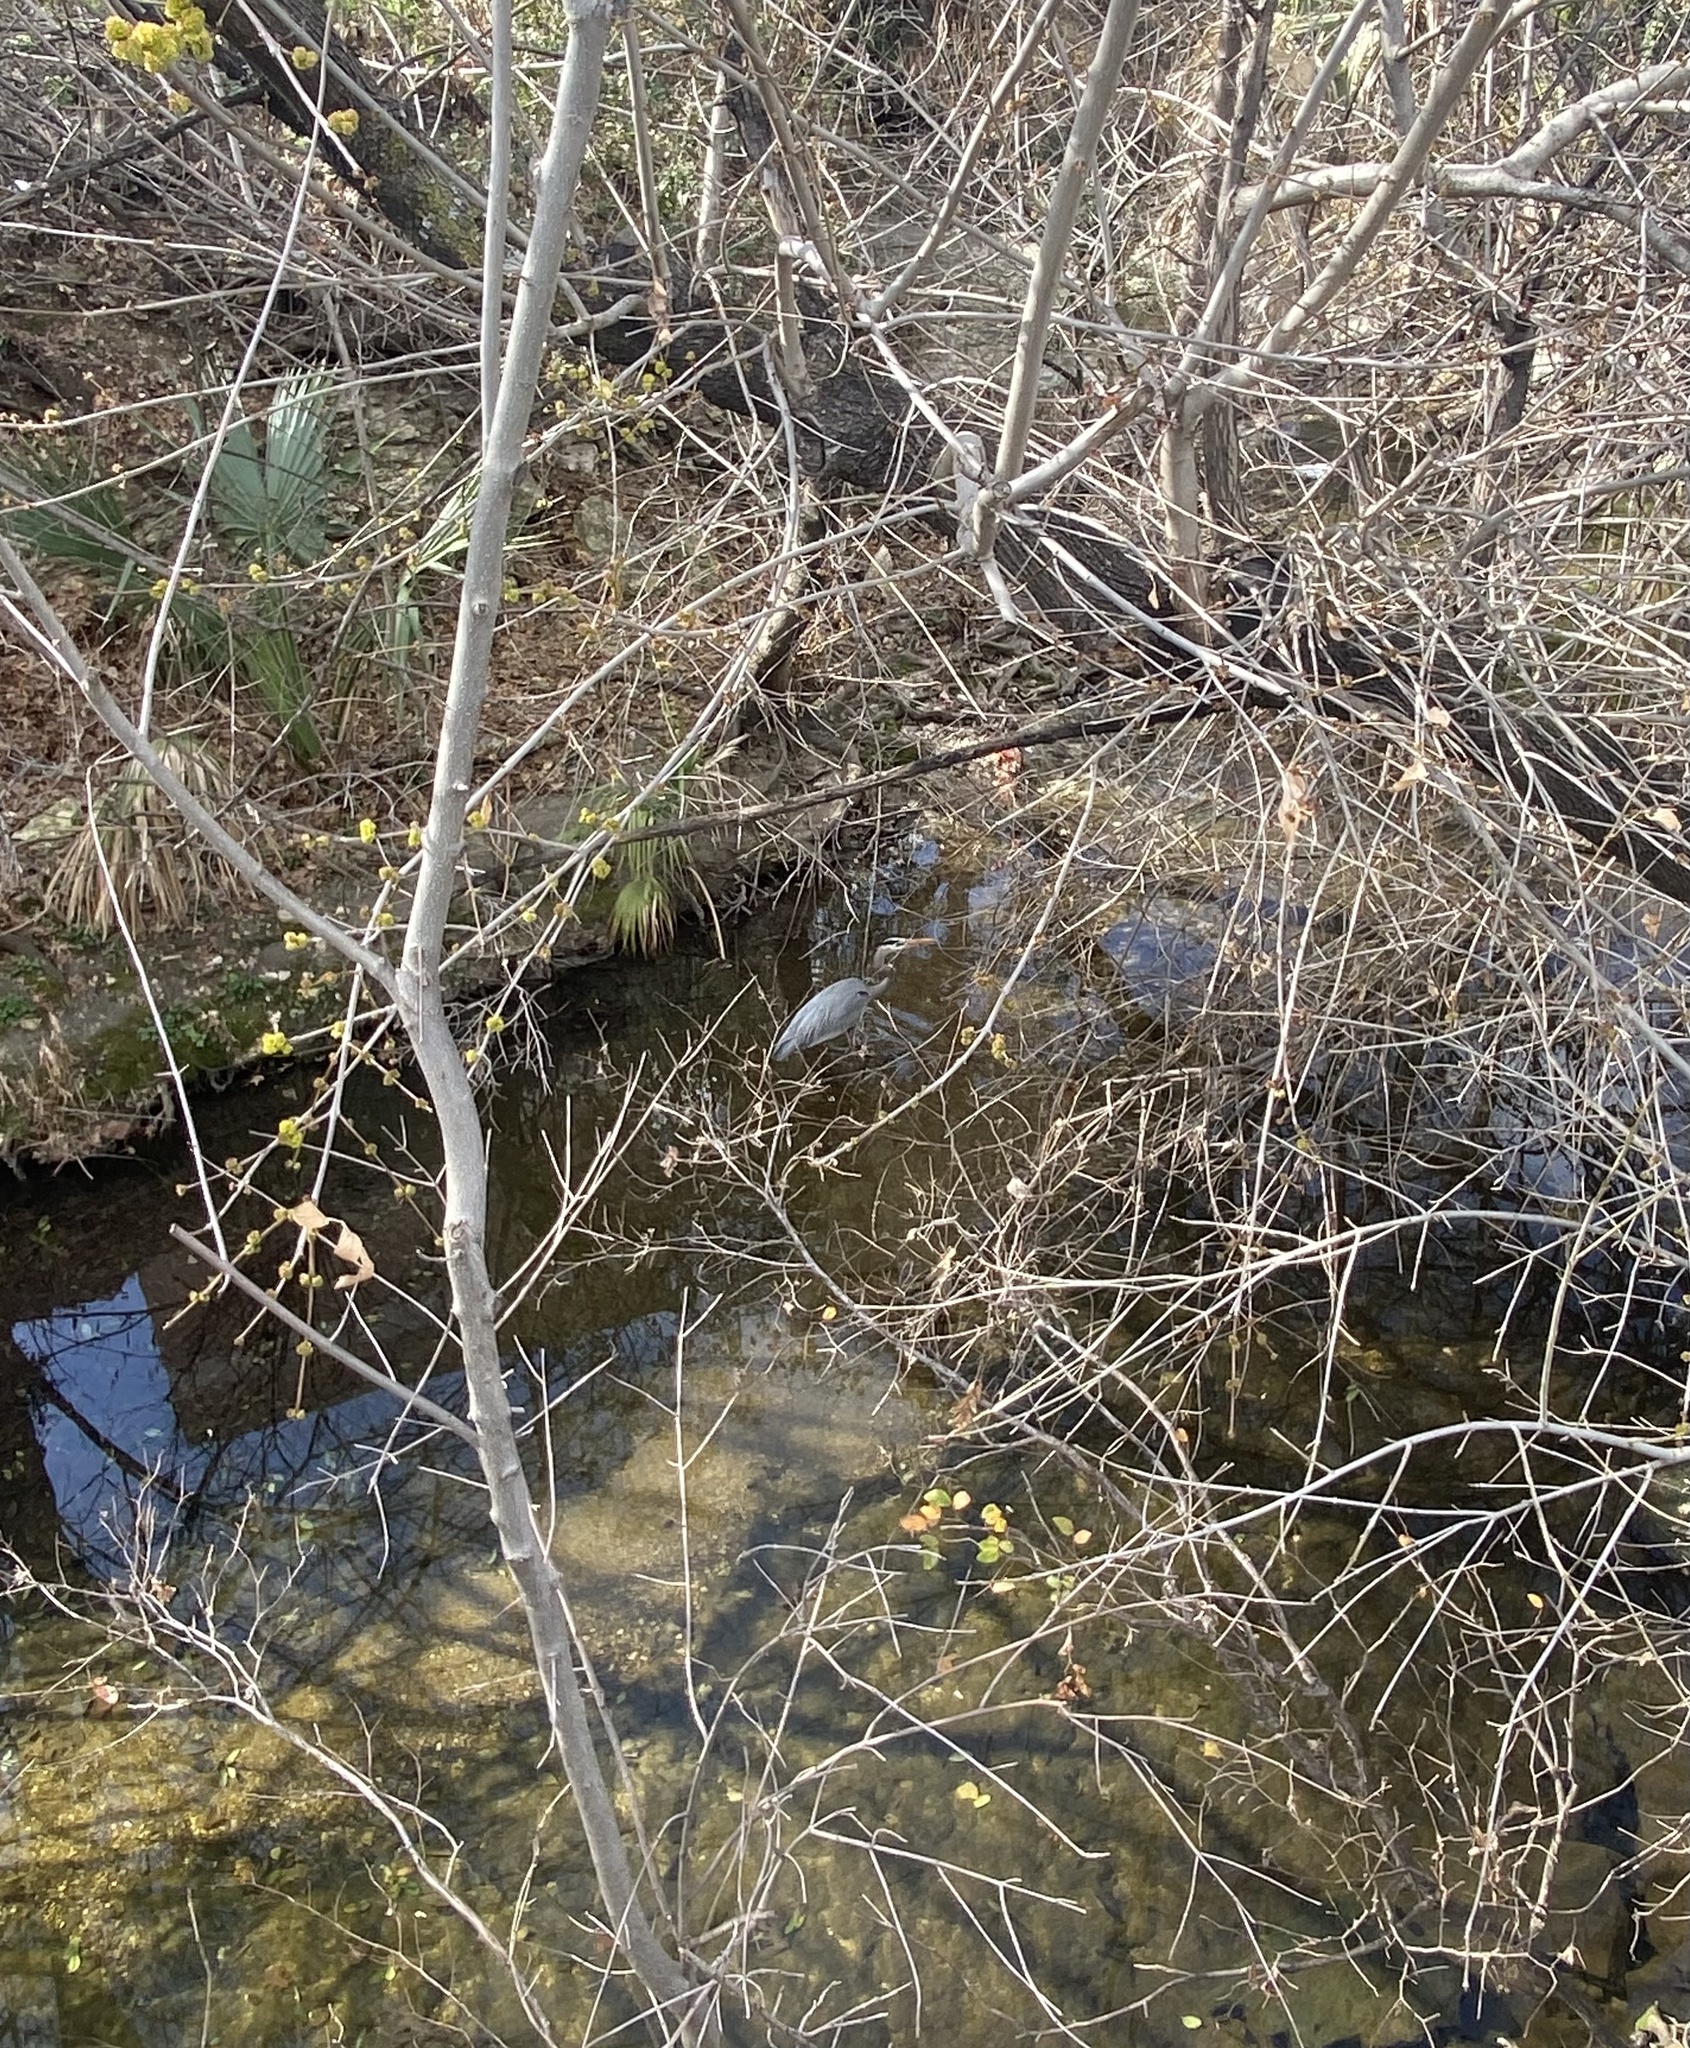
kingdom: Animalia
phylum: Chordata
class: Aves
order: Pelecaniformes
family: Ardeidae
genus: Ardea
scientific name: Ardea herodias
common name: Great blue heron
